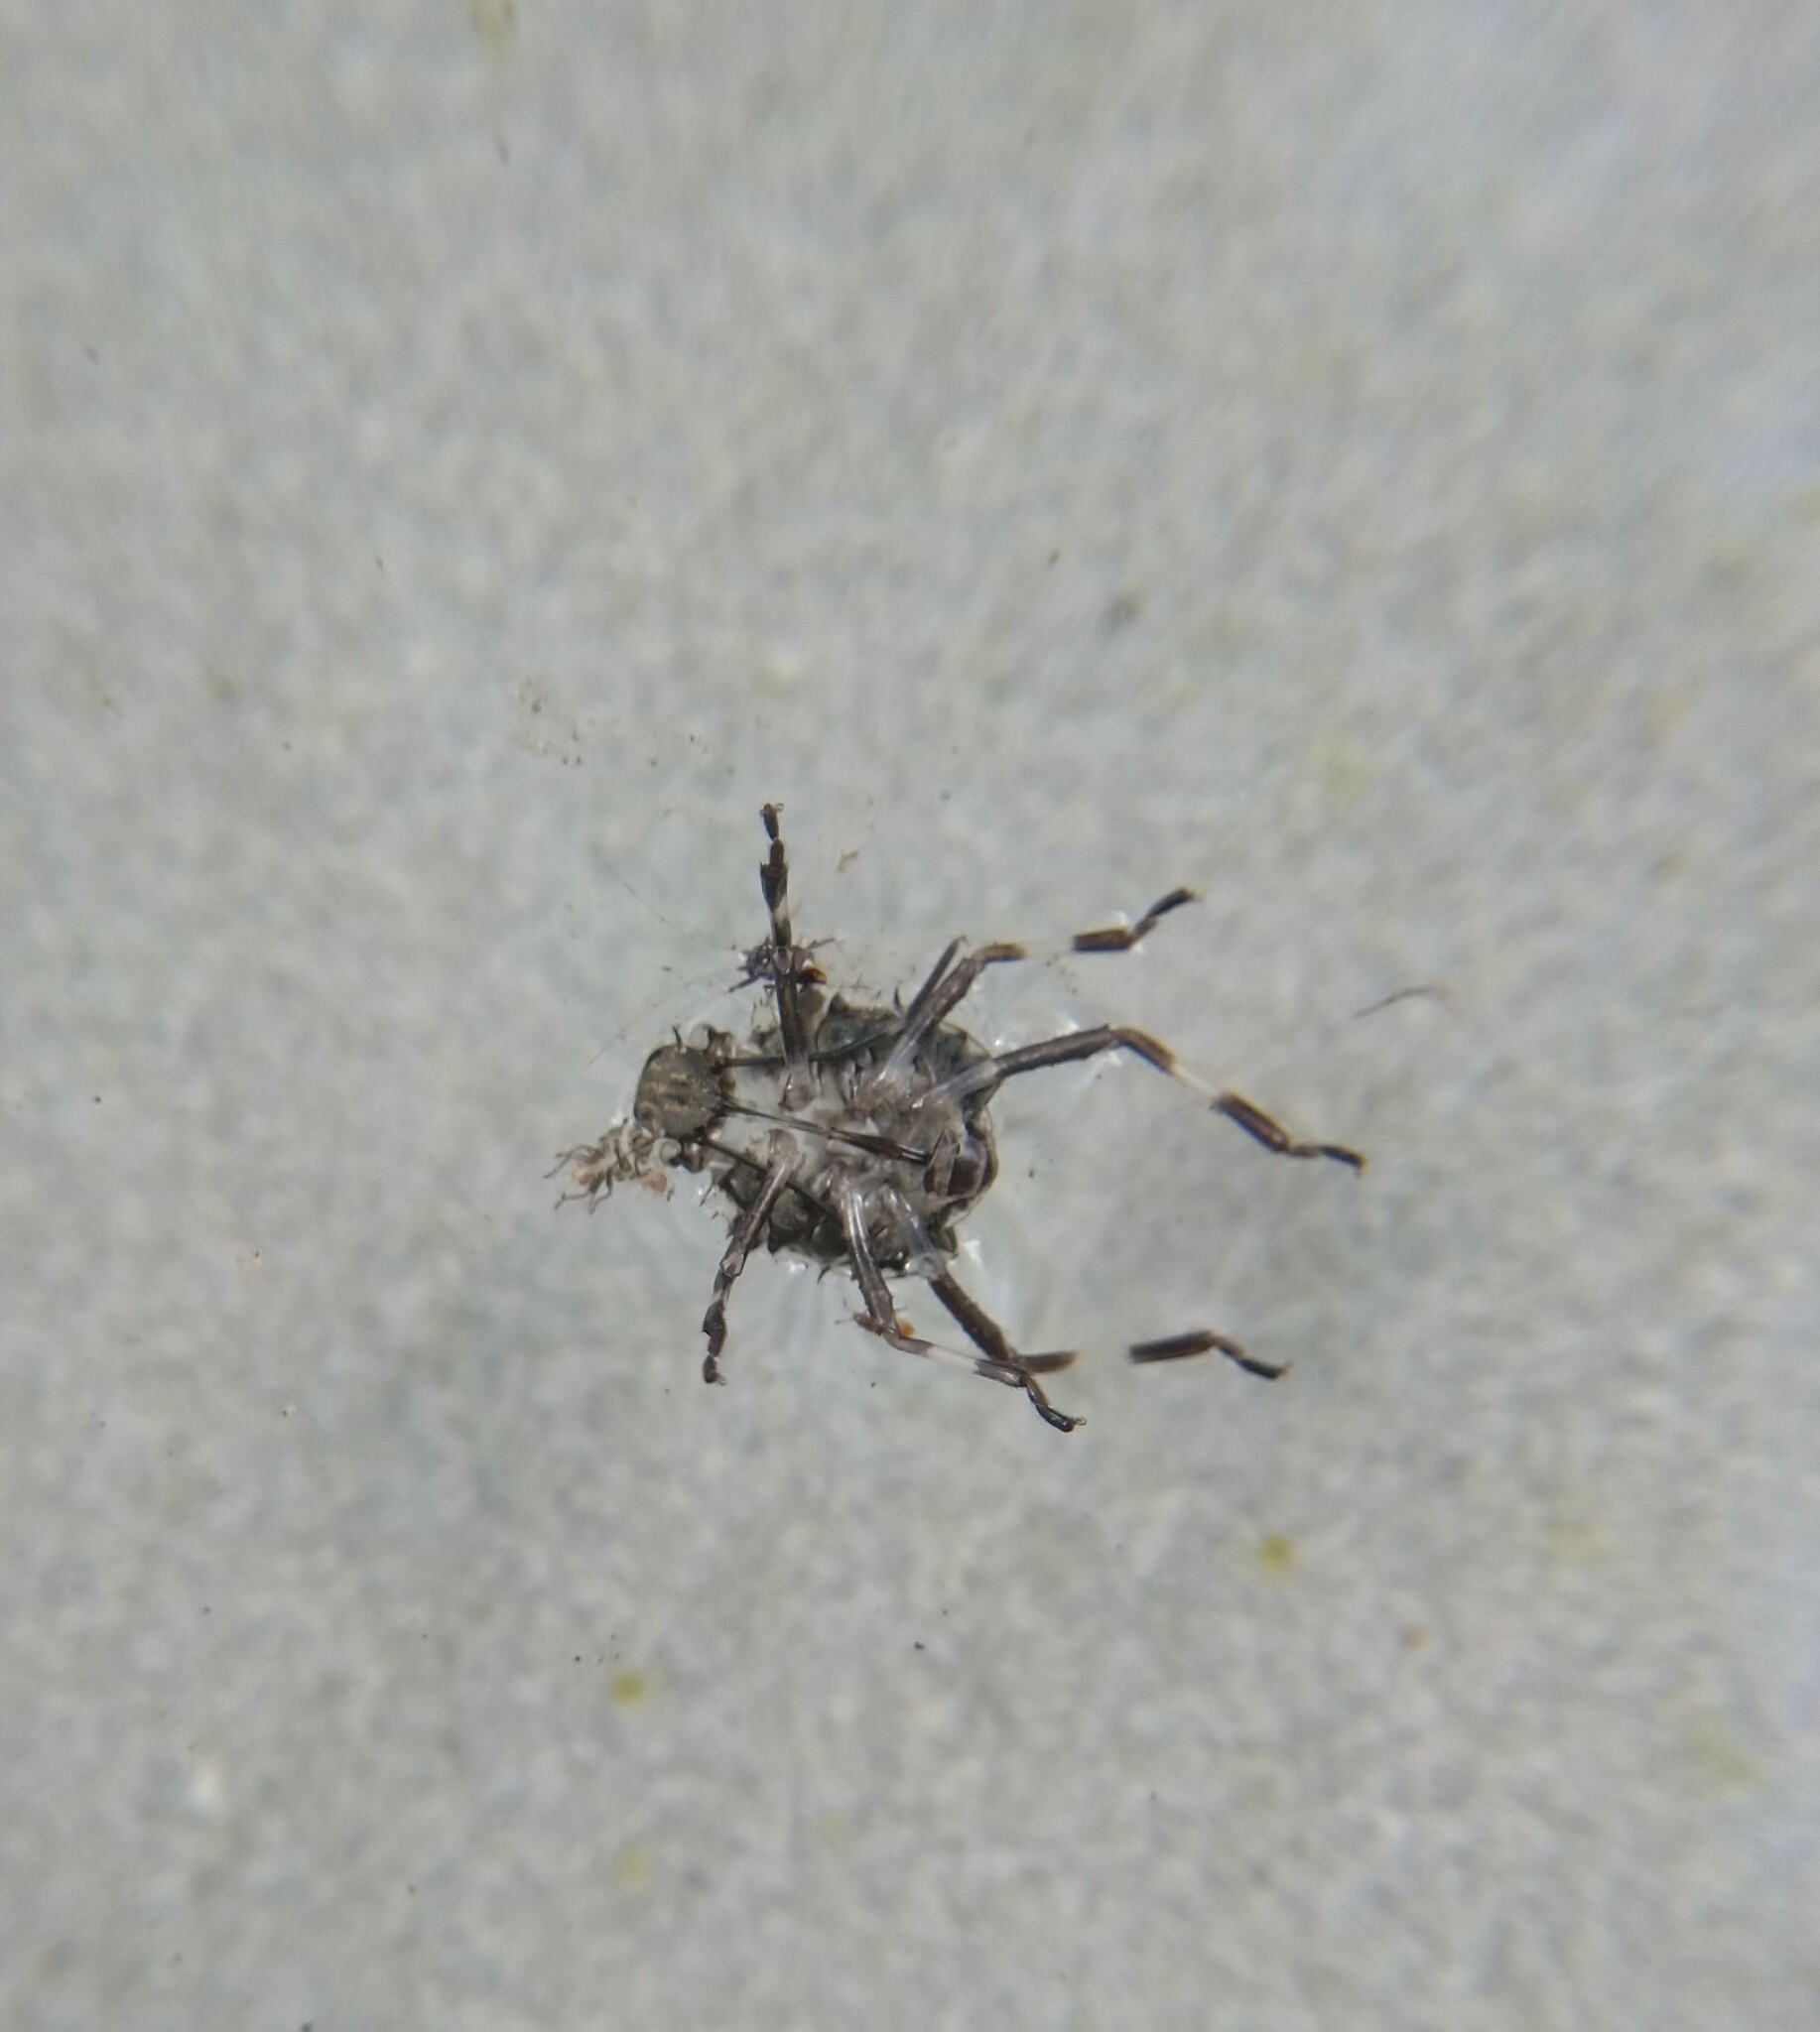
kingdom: Animalia
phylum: Arthropoda
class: Insecta
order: Hemiptera
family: Pentatomidae
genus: Halyomorpha
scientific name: Halyomorpha halys
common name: Brown marmorated stink bug
